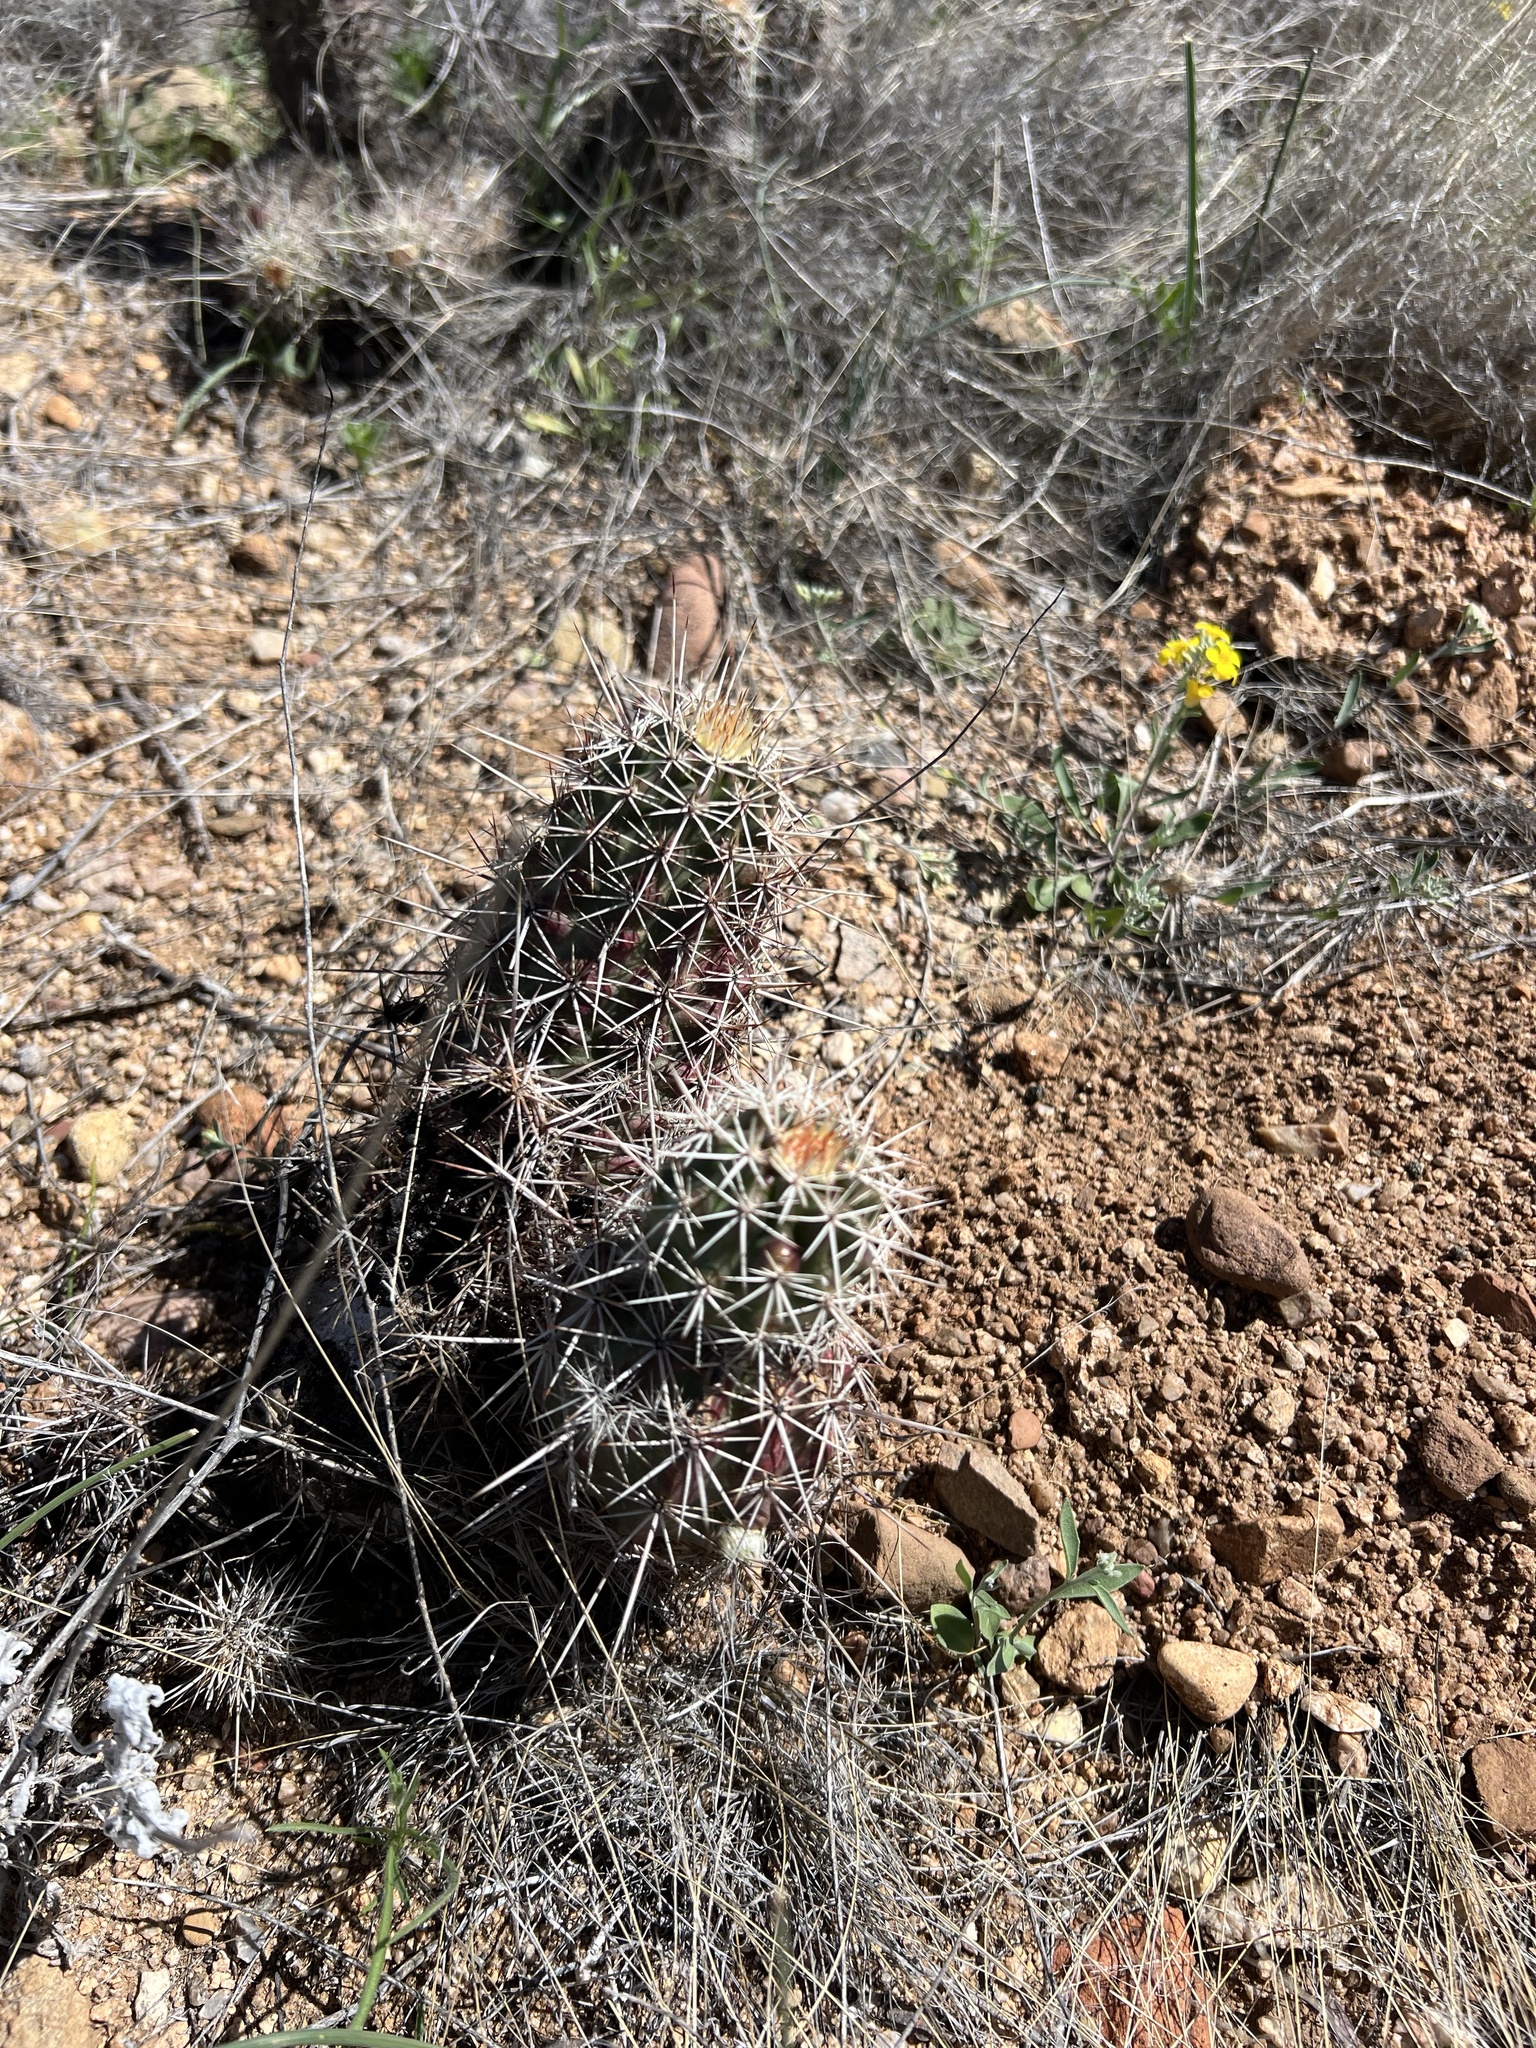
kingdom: Plantae
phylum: Tracheophyta
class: Magnoliopsida
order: Caryophyllales
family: Cactaceae
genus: Echinocereus
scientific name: Echinocereus fasciculatus
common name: Bundle hedgehog
